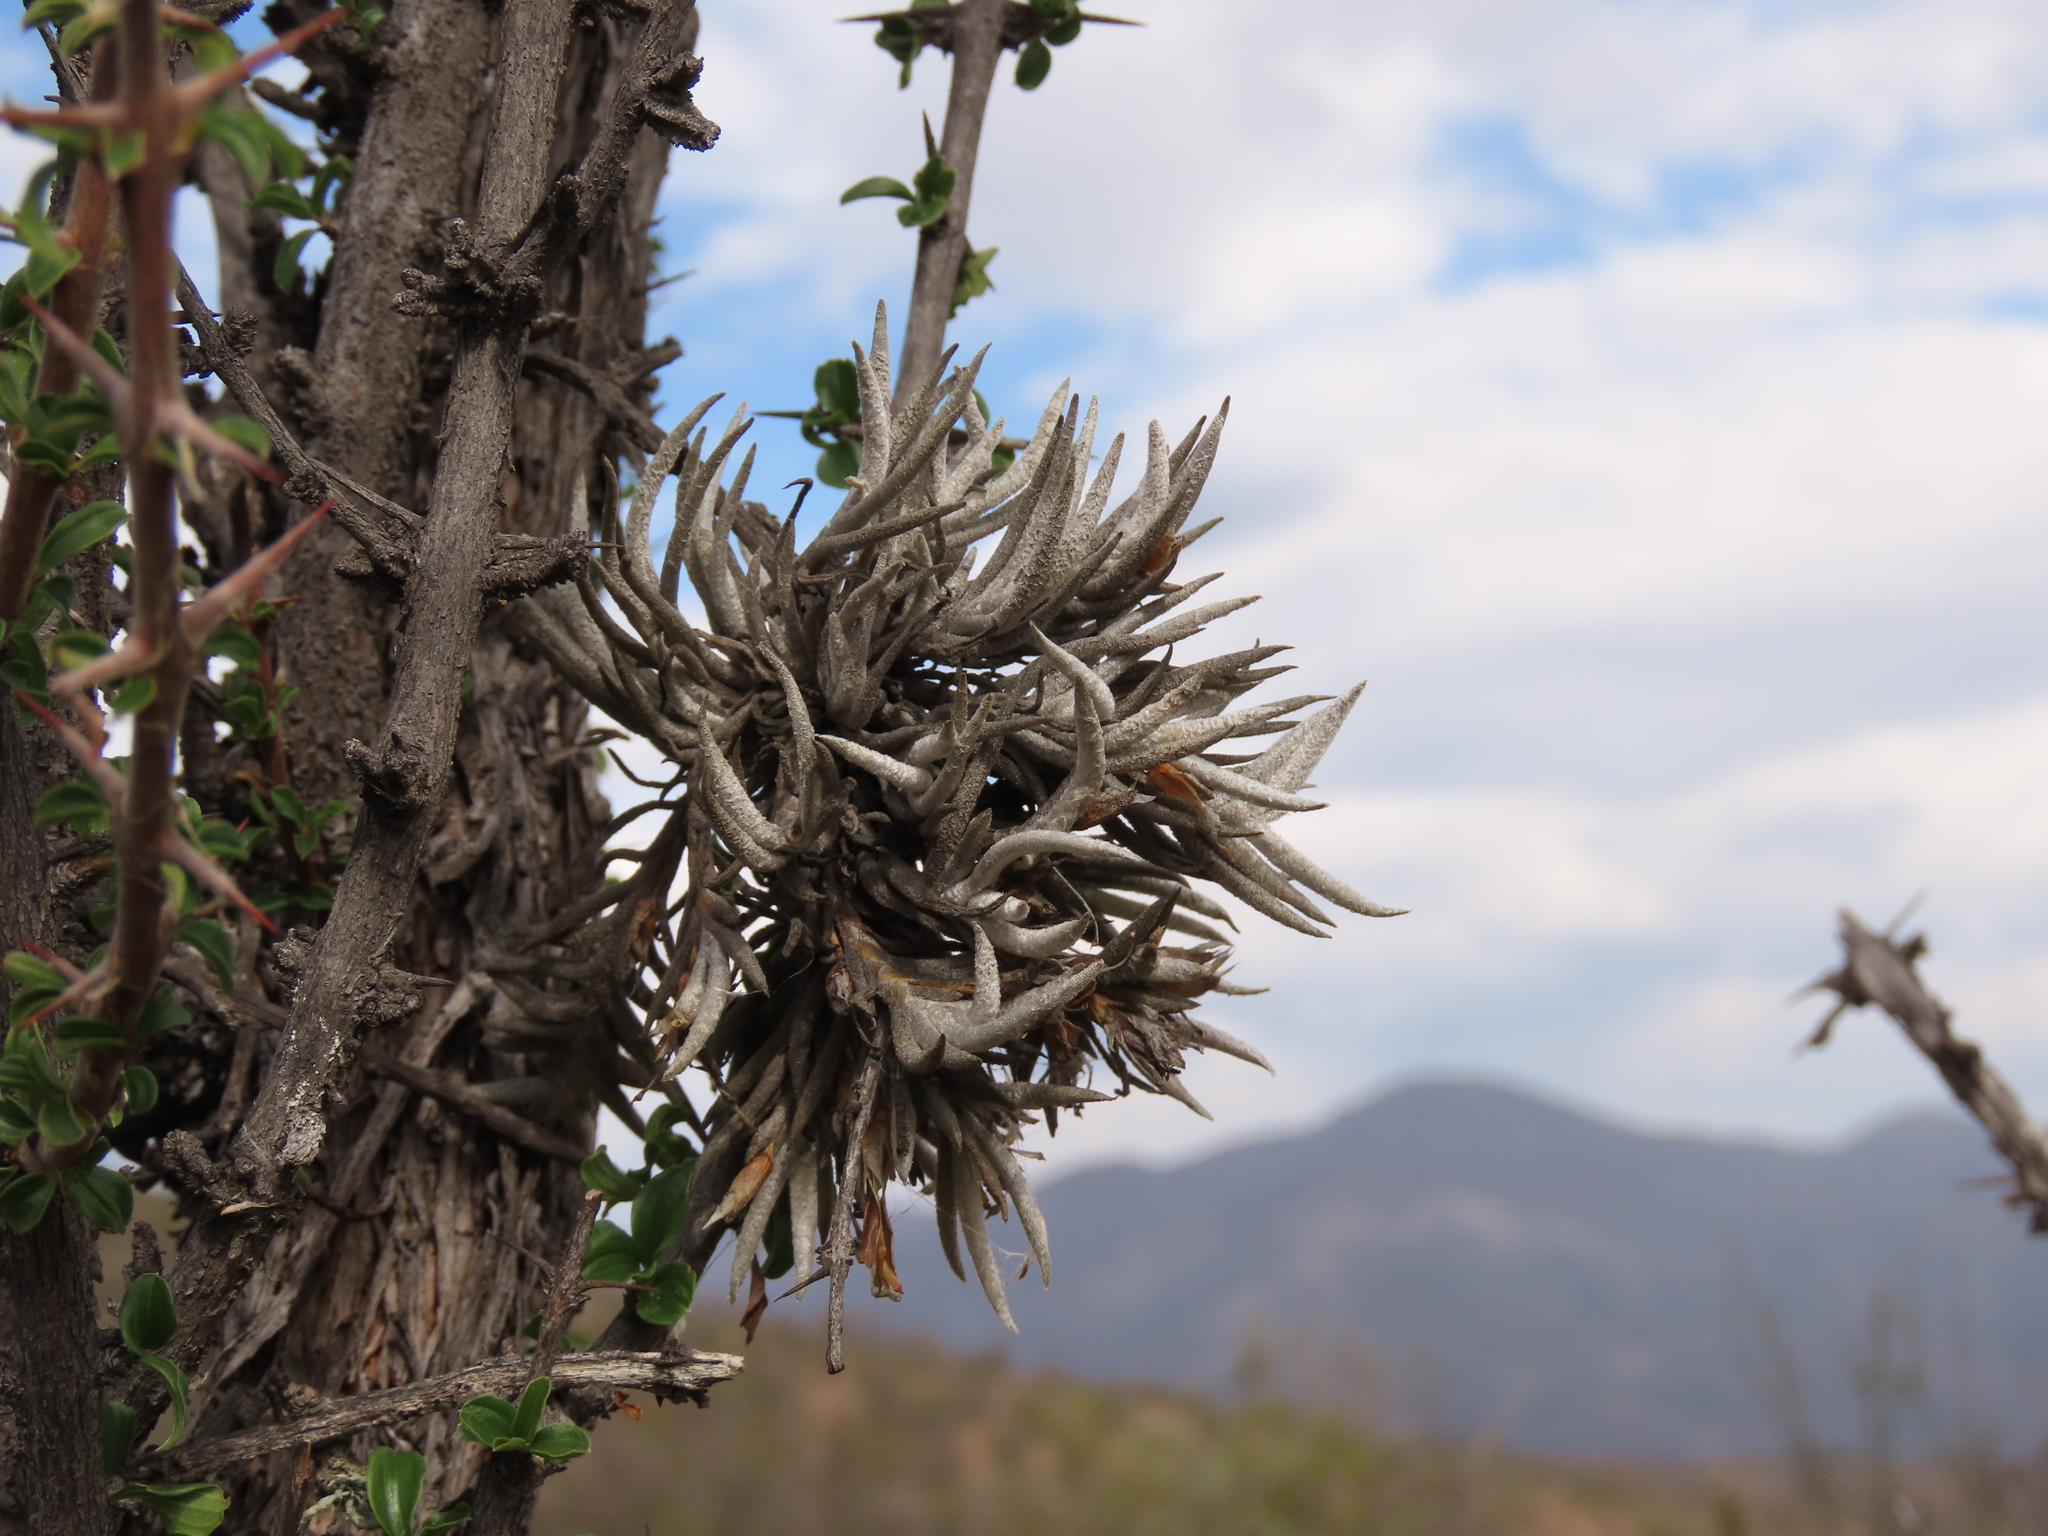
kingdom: Plantae
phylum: Tracheophyta
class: Liliopsida
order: Poales
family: Bromeliaceae
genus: Tillandsia
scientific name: Tillandsia virescens
